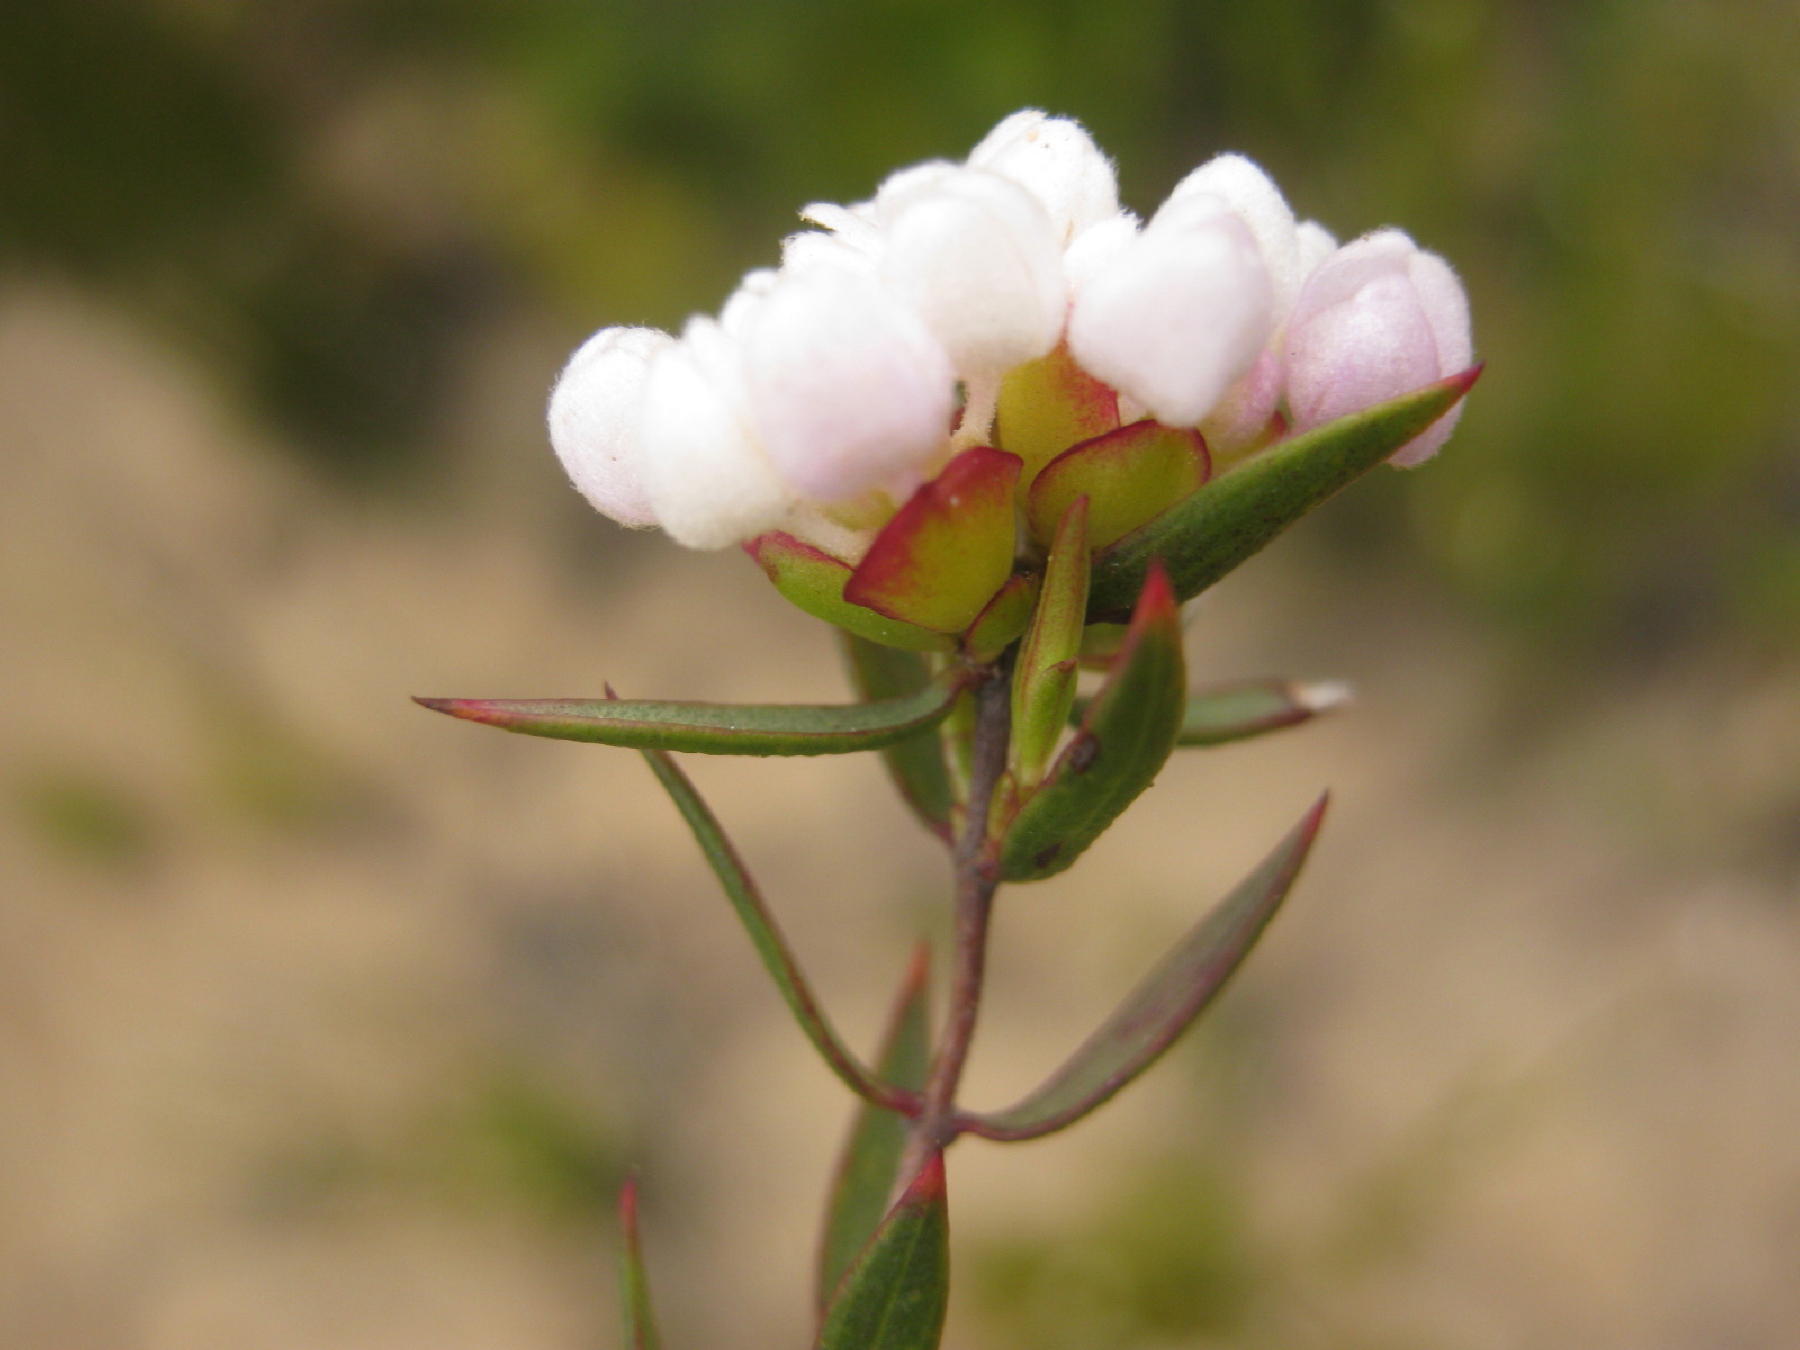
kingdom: Plantae
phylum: Tracheophyta
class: Magnoliopsida
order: Malvales
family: Thymelaeaceae
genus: Lachnaea
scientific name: Lachnaea burchellii
